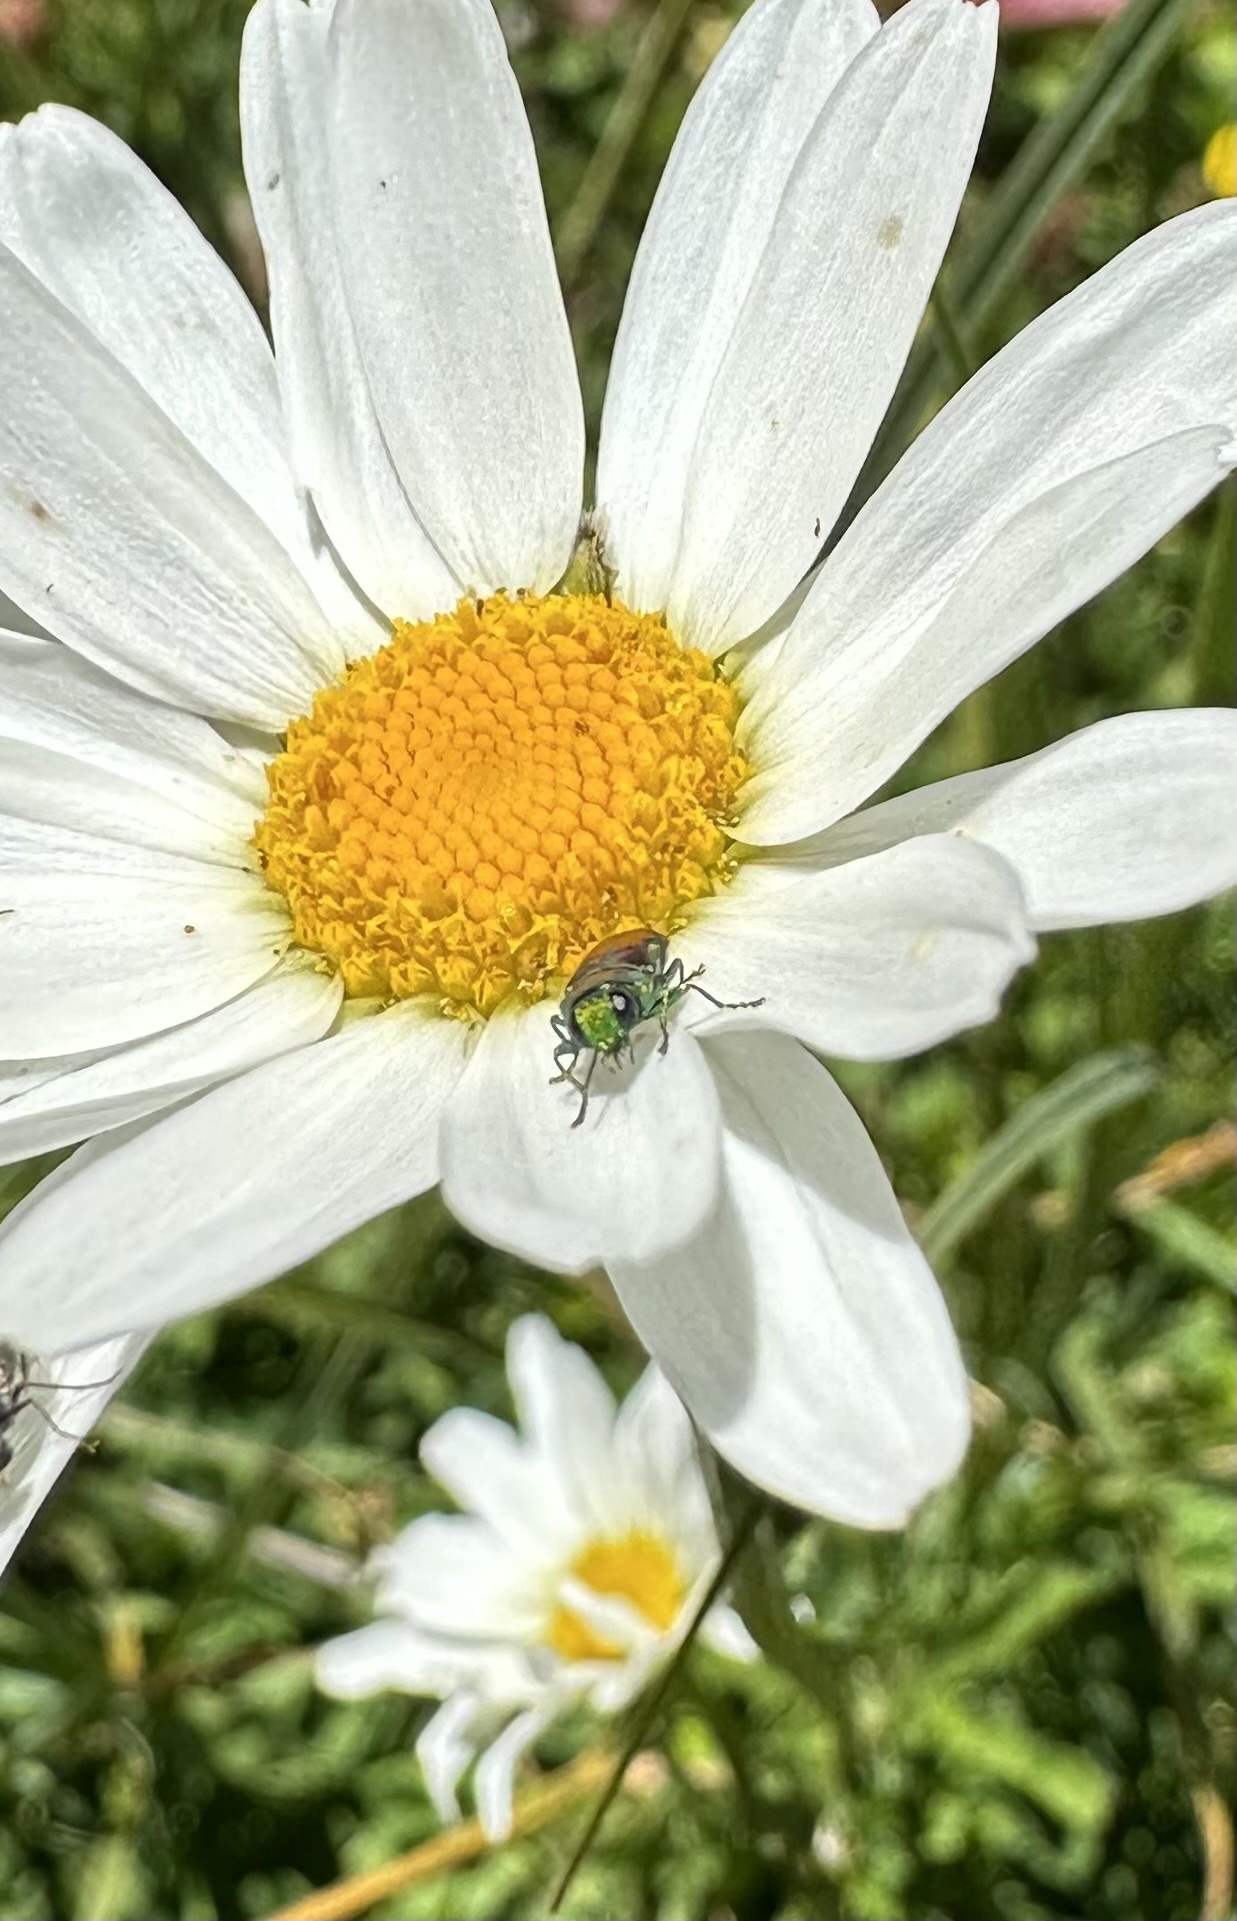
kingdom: Animalia
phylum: Arthropoda
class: Insecta
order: Coleoptera
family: Buprestidae
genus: Bilyaxia
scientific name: Bilyaxia cordillerae
